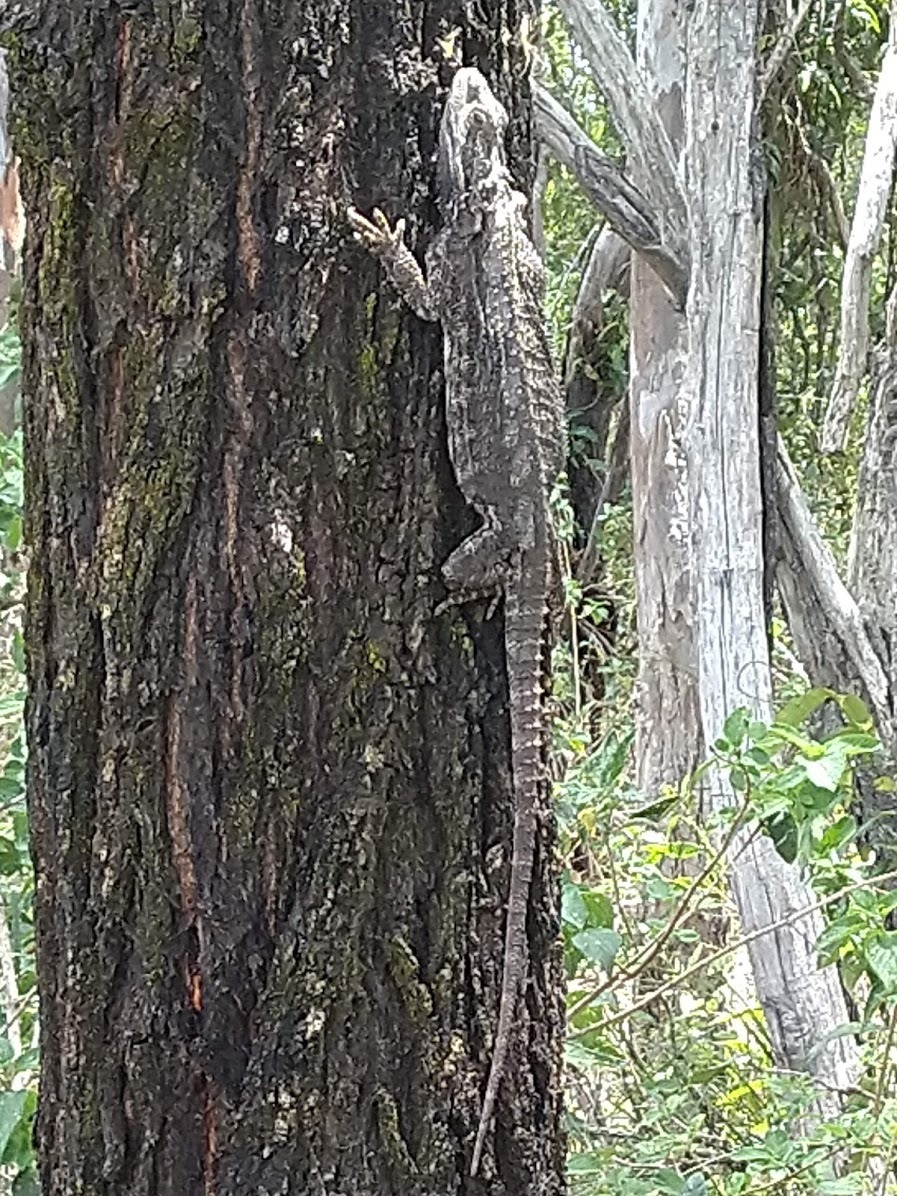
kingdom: Animalia
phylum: Chordata
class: Squamata
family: Agamidae
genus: Pogona
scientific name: Pogona barbata
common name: Bearded dragon
